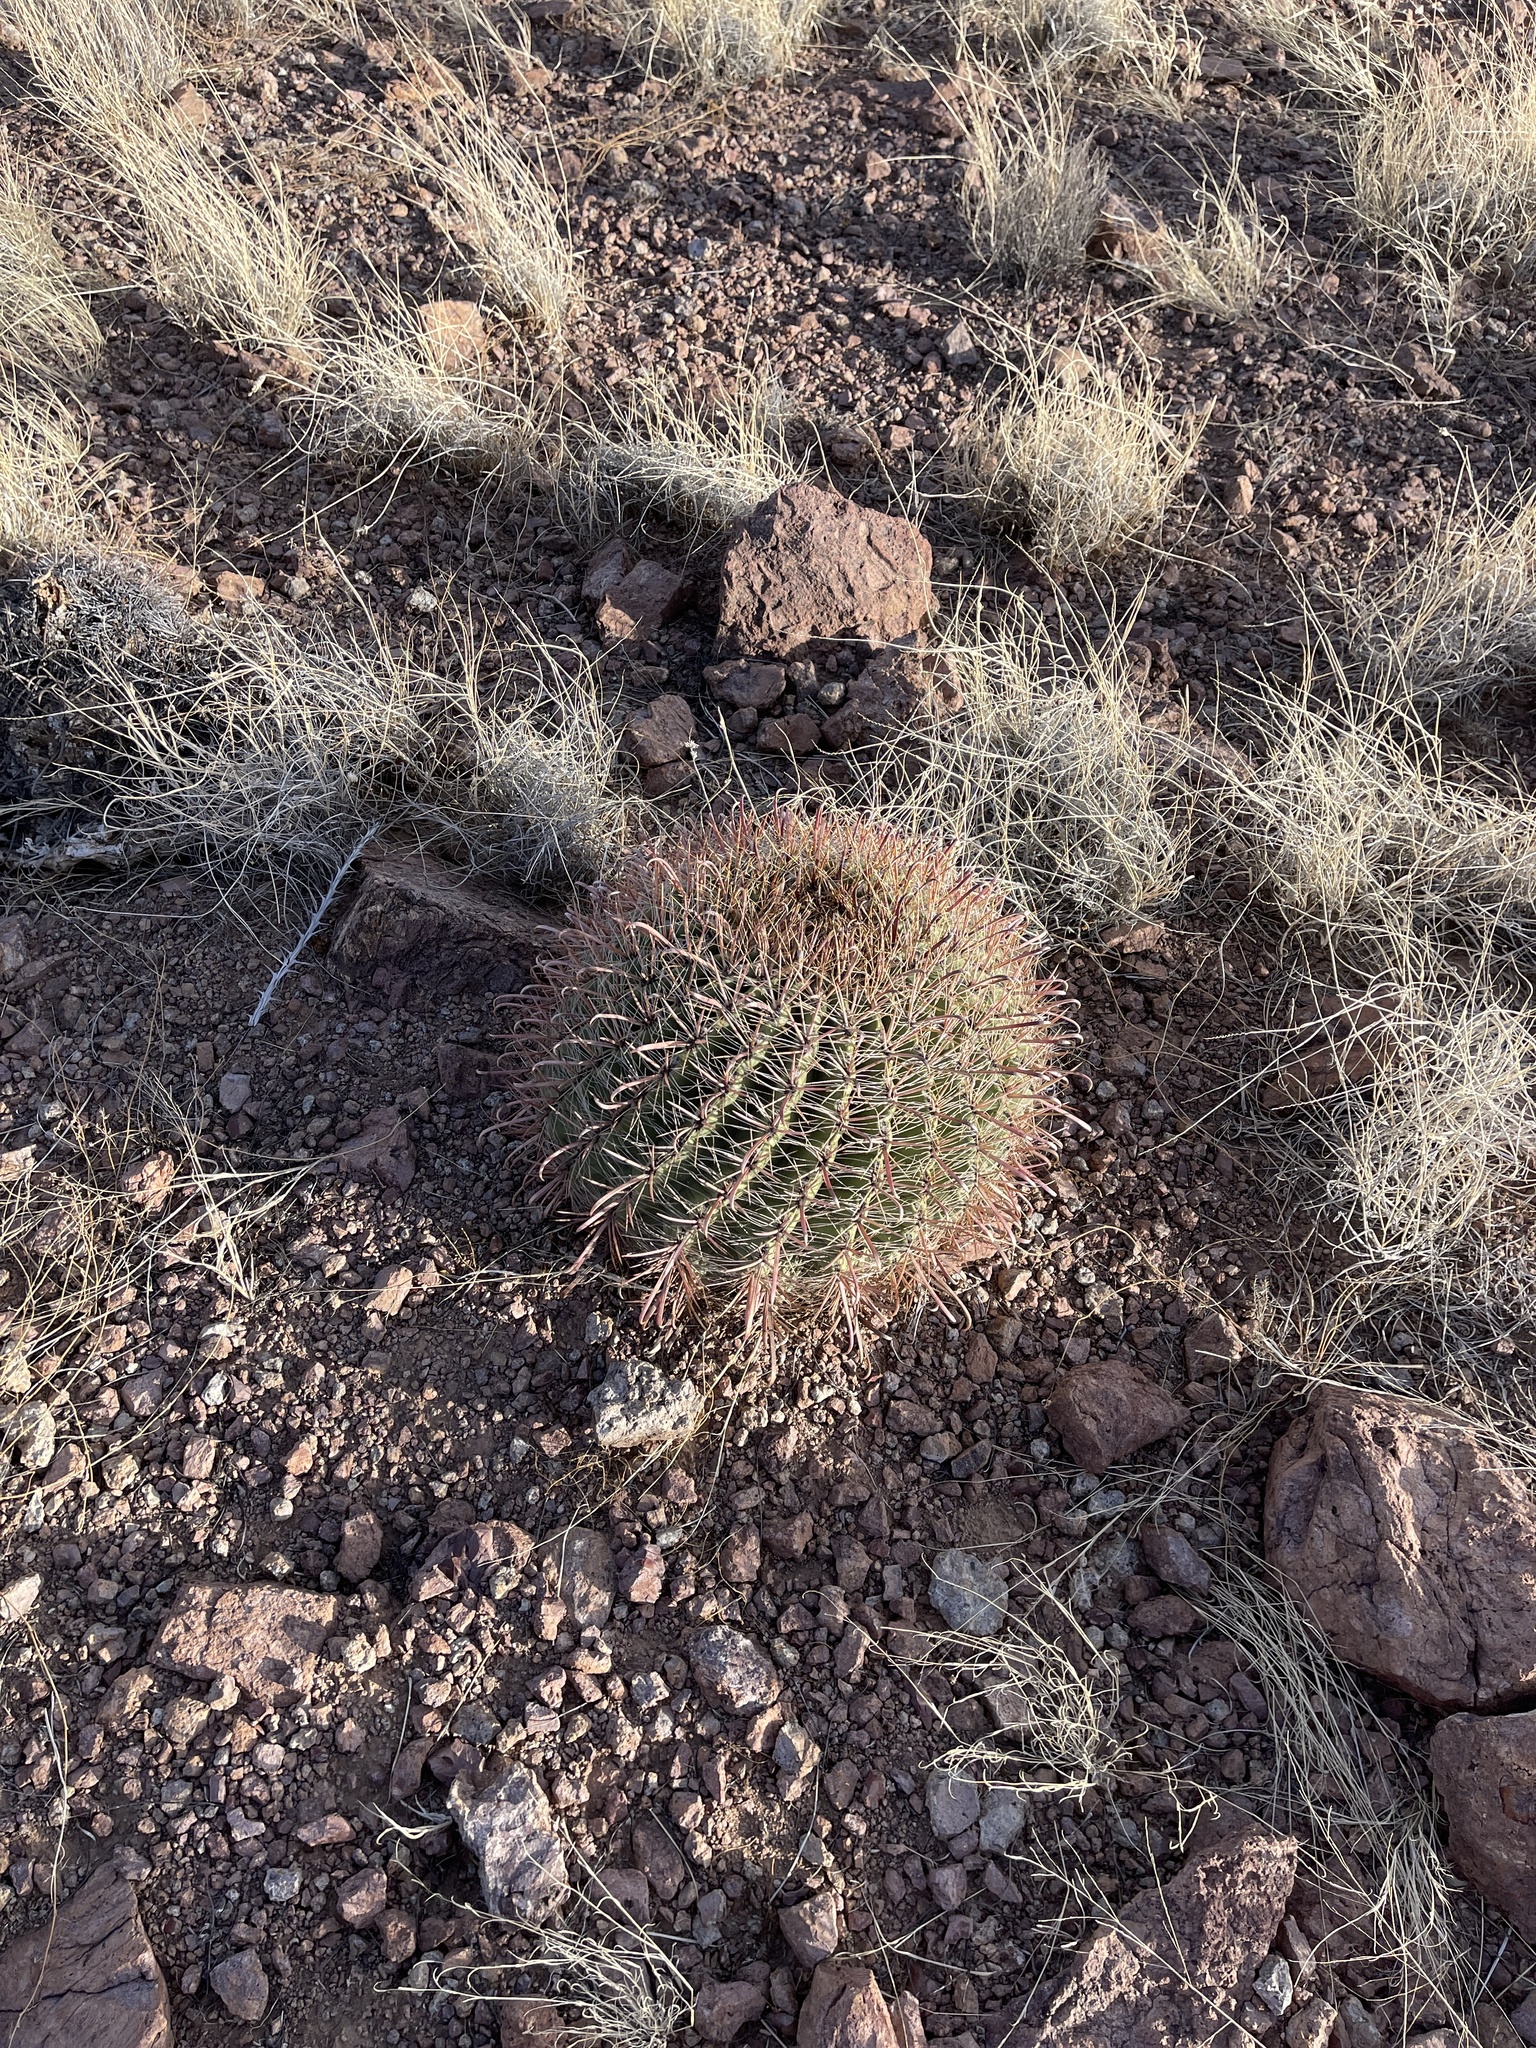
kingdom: Plantae
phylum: Tracheophyta
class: Magnoliopsida
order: Caryophyllales
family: Cactaceae
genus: Ferocactus
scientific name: Ferocactus wislizeni
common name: Candy barrel cactus
